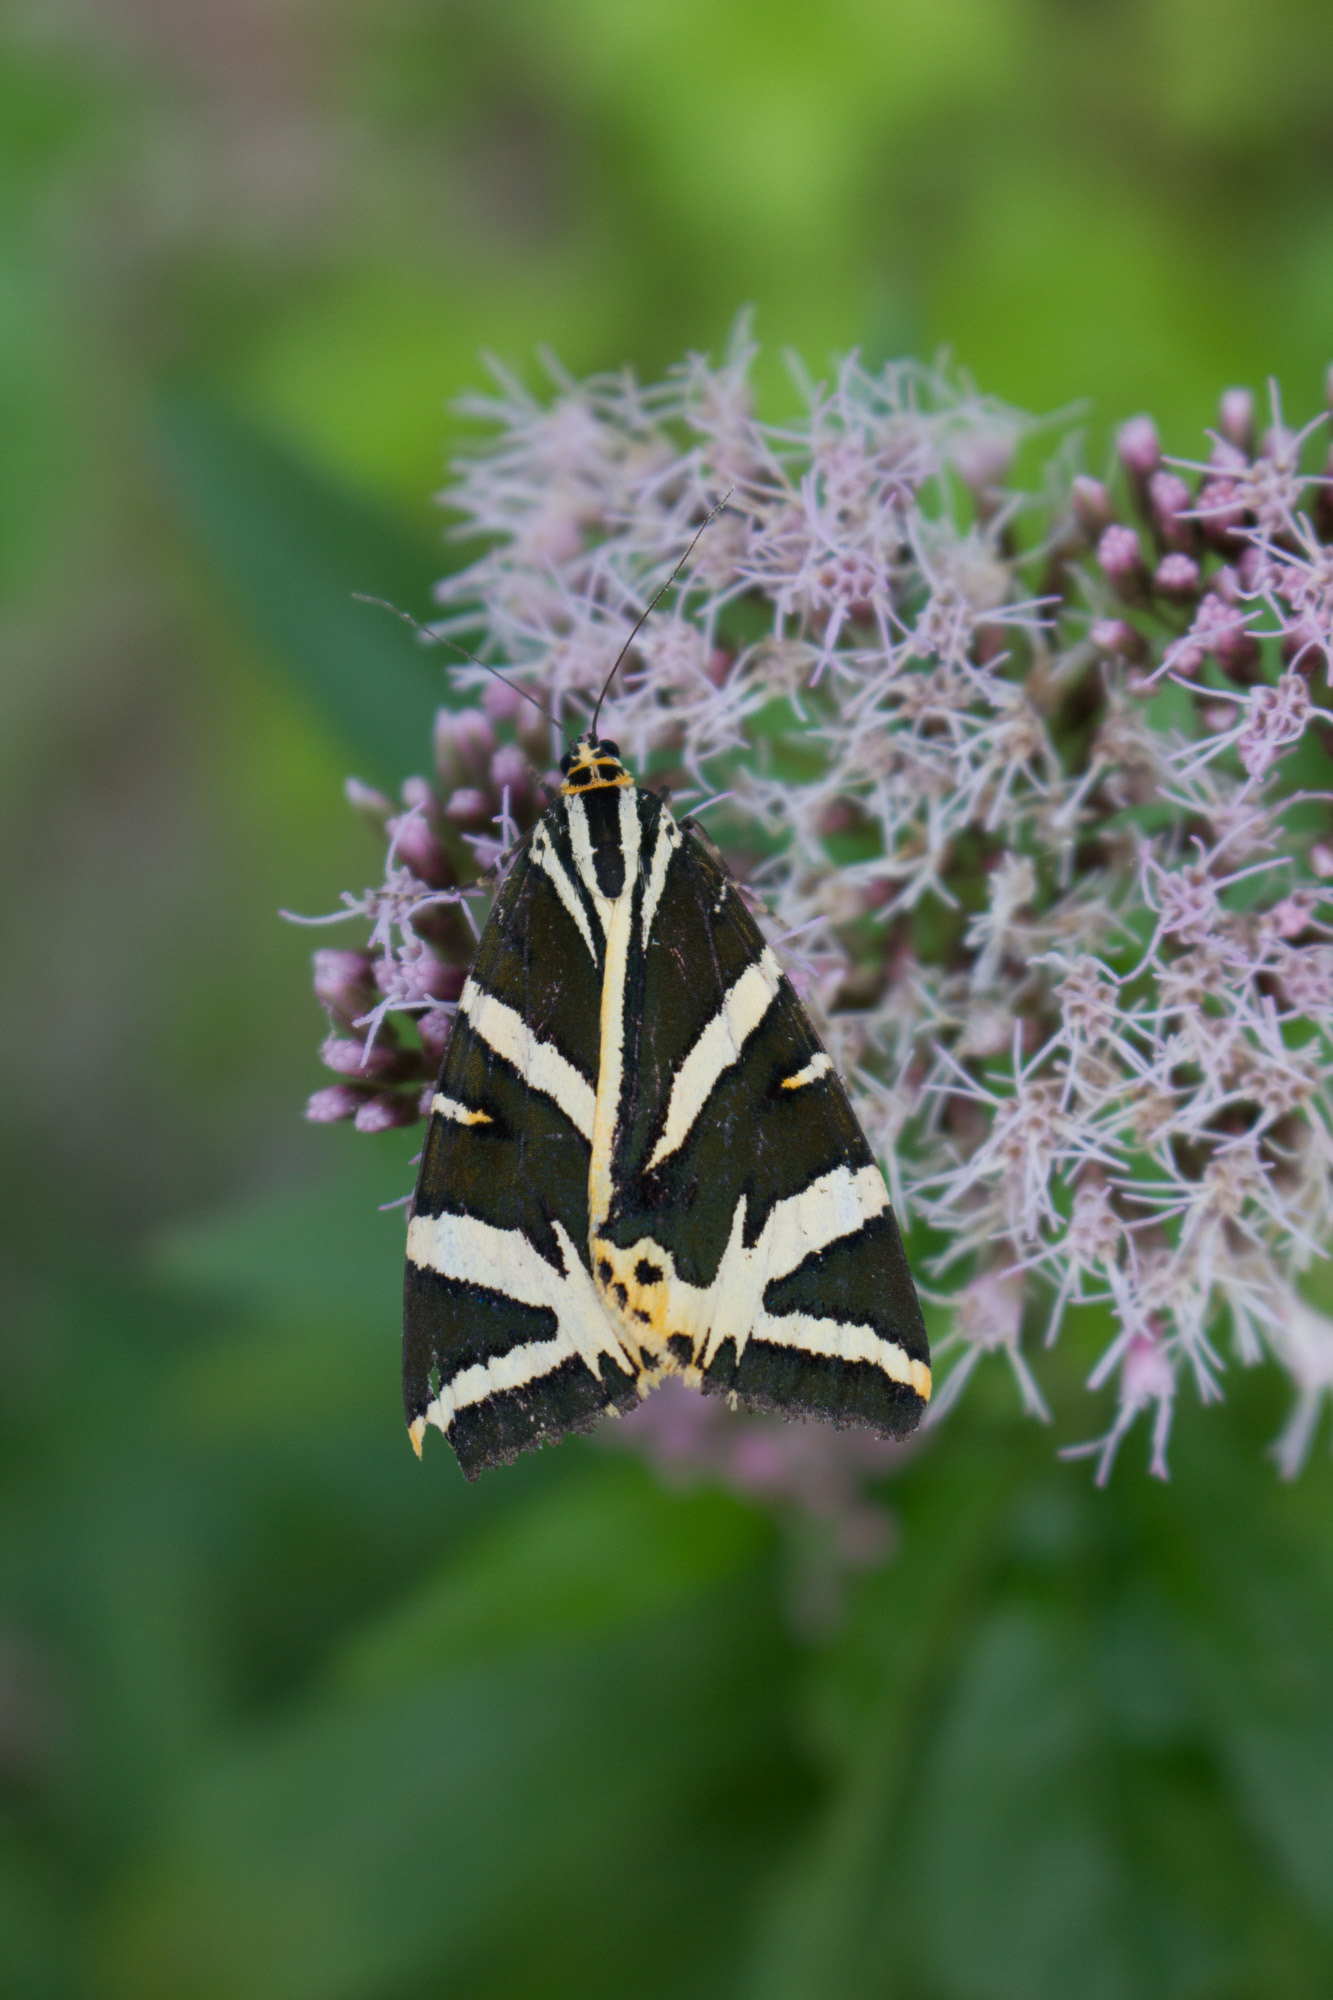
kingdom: Animalia
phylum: Arthropoda
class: Insecta
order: Lepidoptera
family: Erebidae
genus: Euplagia
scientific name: Euplagia quadripunctaria
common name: Jersey tiger
